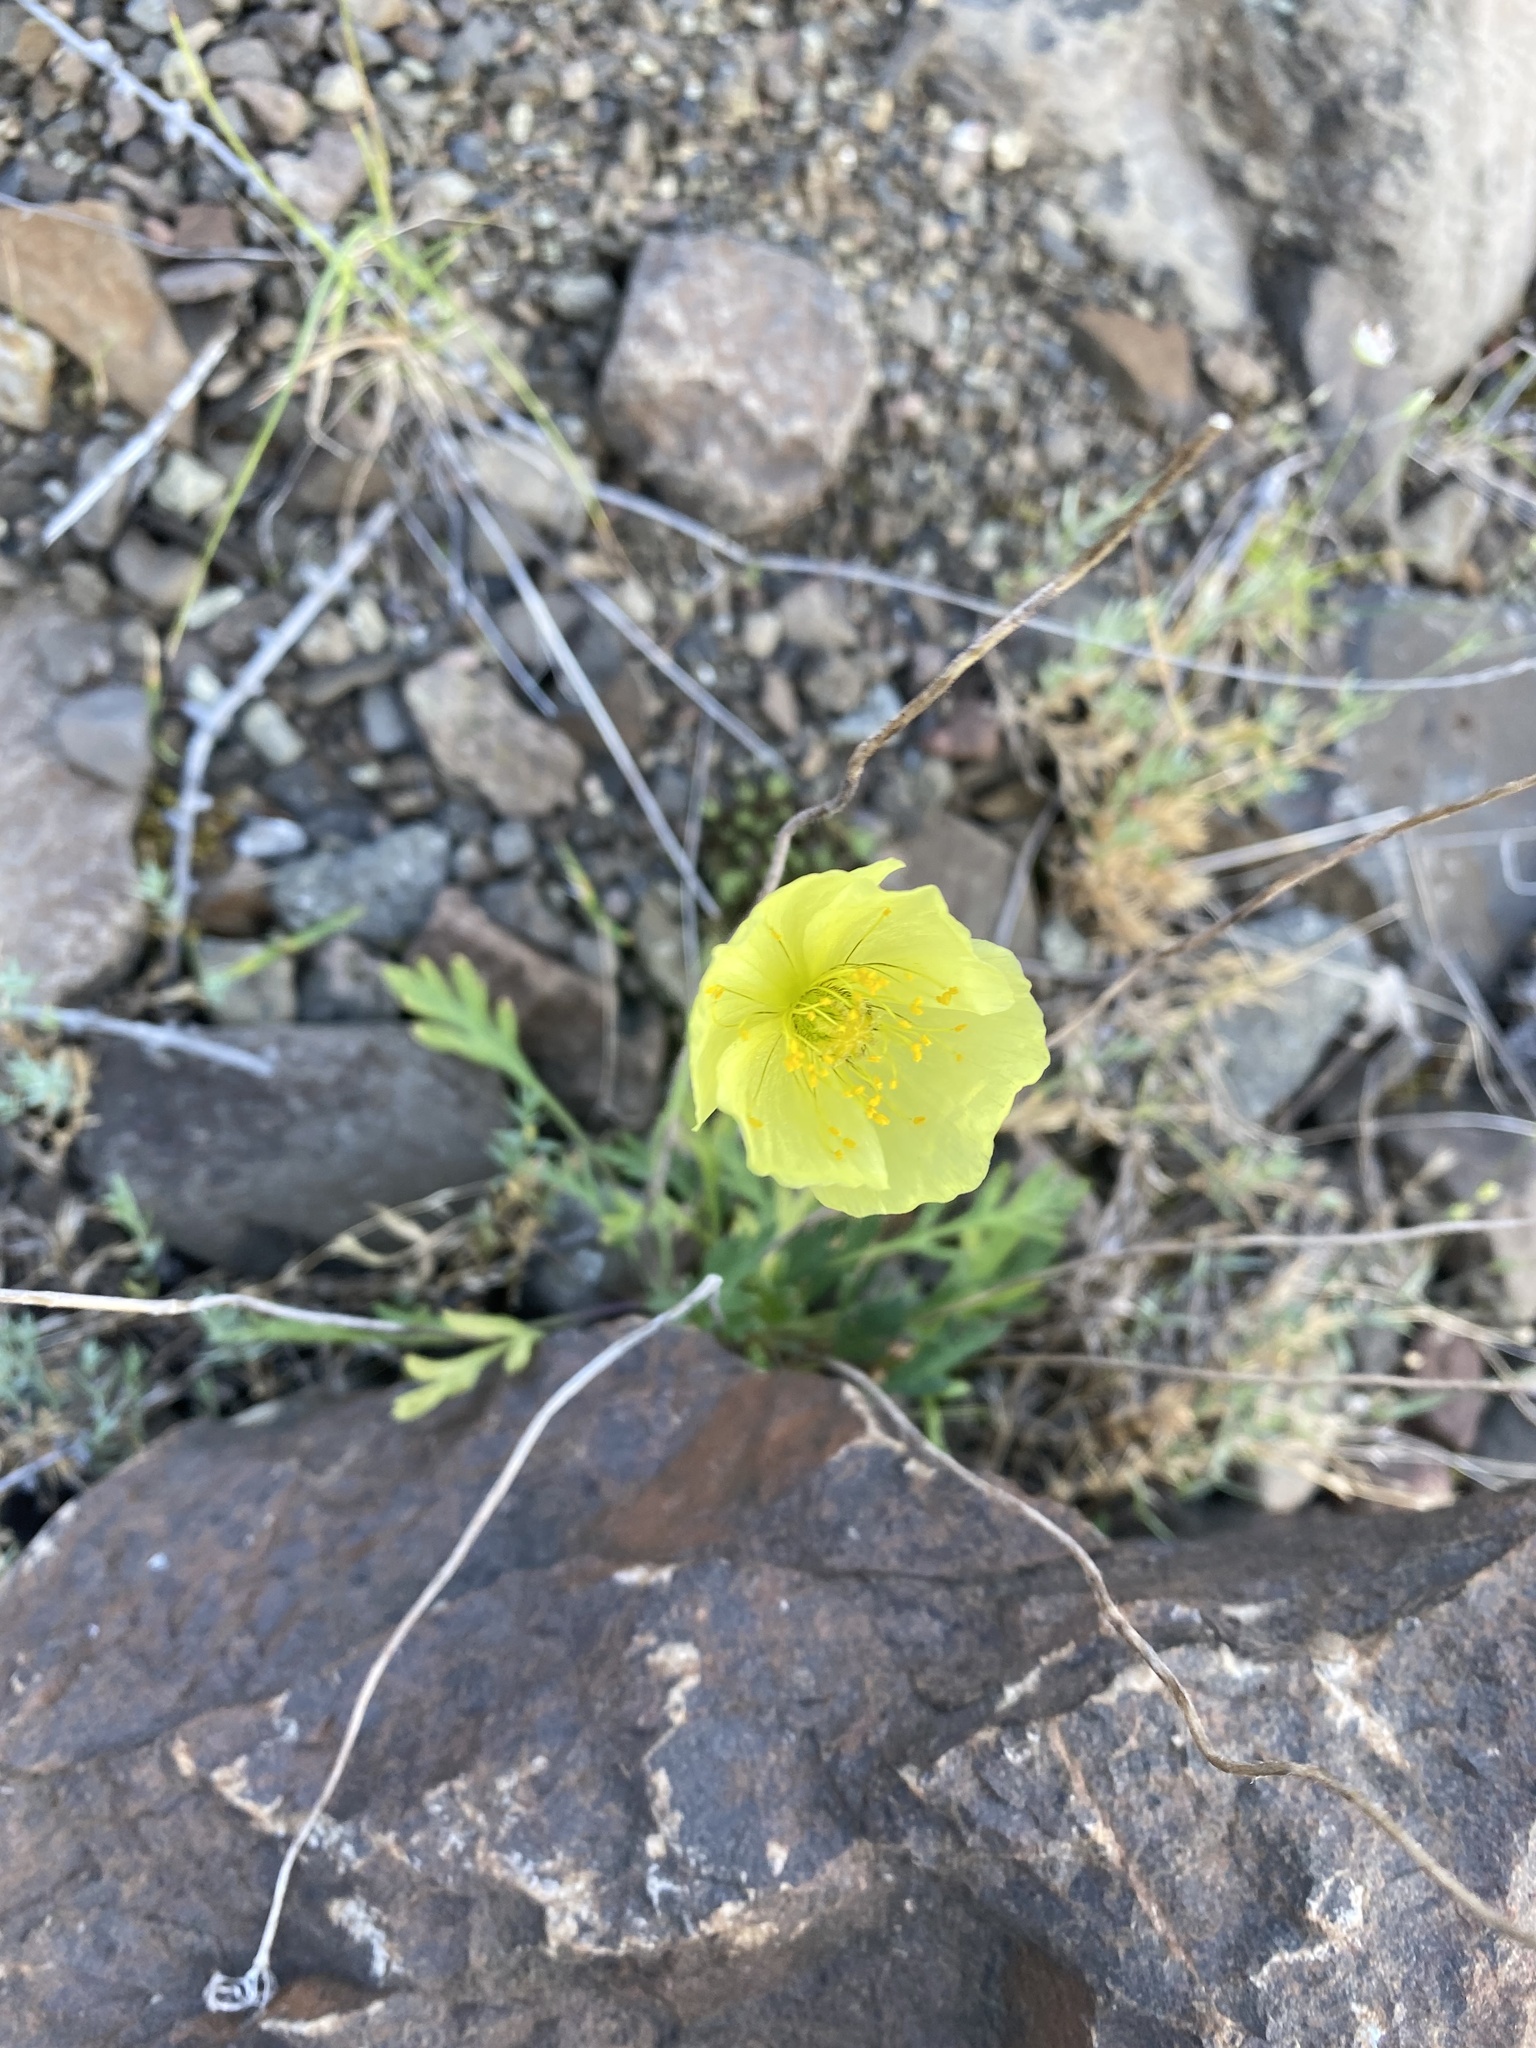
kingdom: Plantae
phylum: Tracheophyta
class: Magnoliopsida
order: Ranunculales
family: Papaveraceae
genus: Papaver
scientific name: Papaver lapponicum
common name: Lapland poppy
